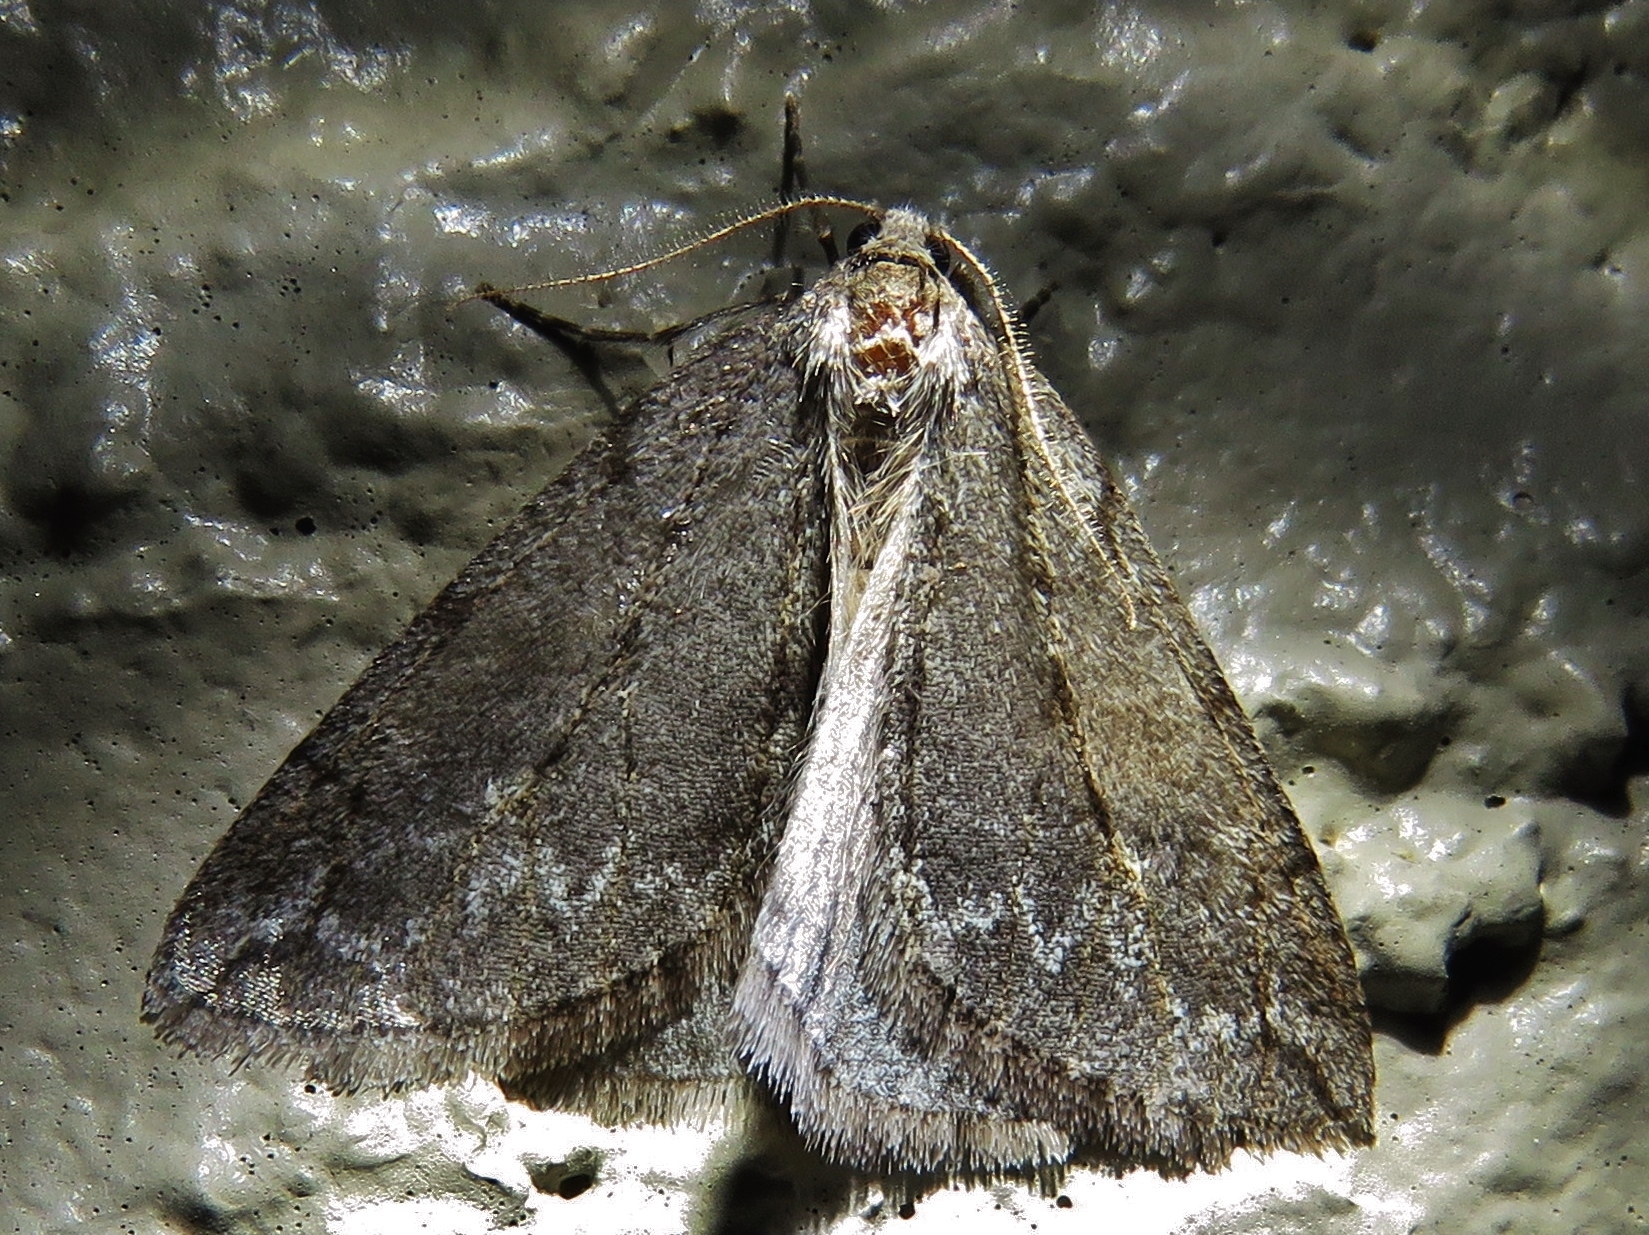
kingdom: Animalia
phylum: Arthropoda
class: Insecta
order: Lepidoptera
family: Geometridae
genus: Paleacrita
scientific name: Paleacrita vernata
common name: Spring cankerworm
